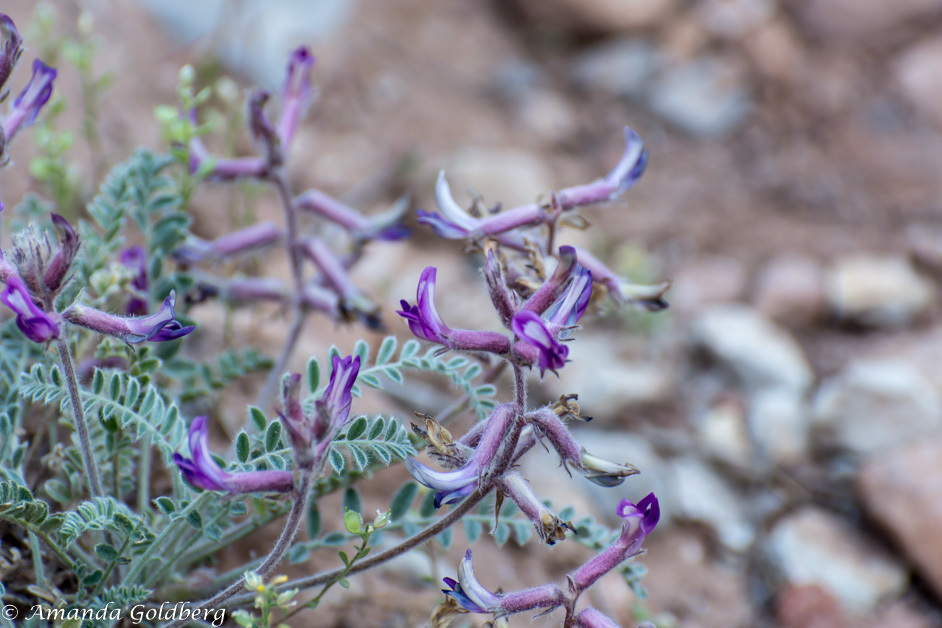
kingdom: Plantae
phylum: Tracheophyta
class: Magnoliopsida
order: Fabales
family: Fabaceae
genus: Astragalus
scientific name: Astragalus mollissimus
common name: Woolly locoweed
